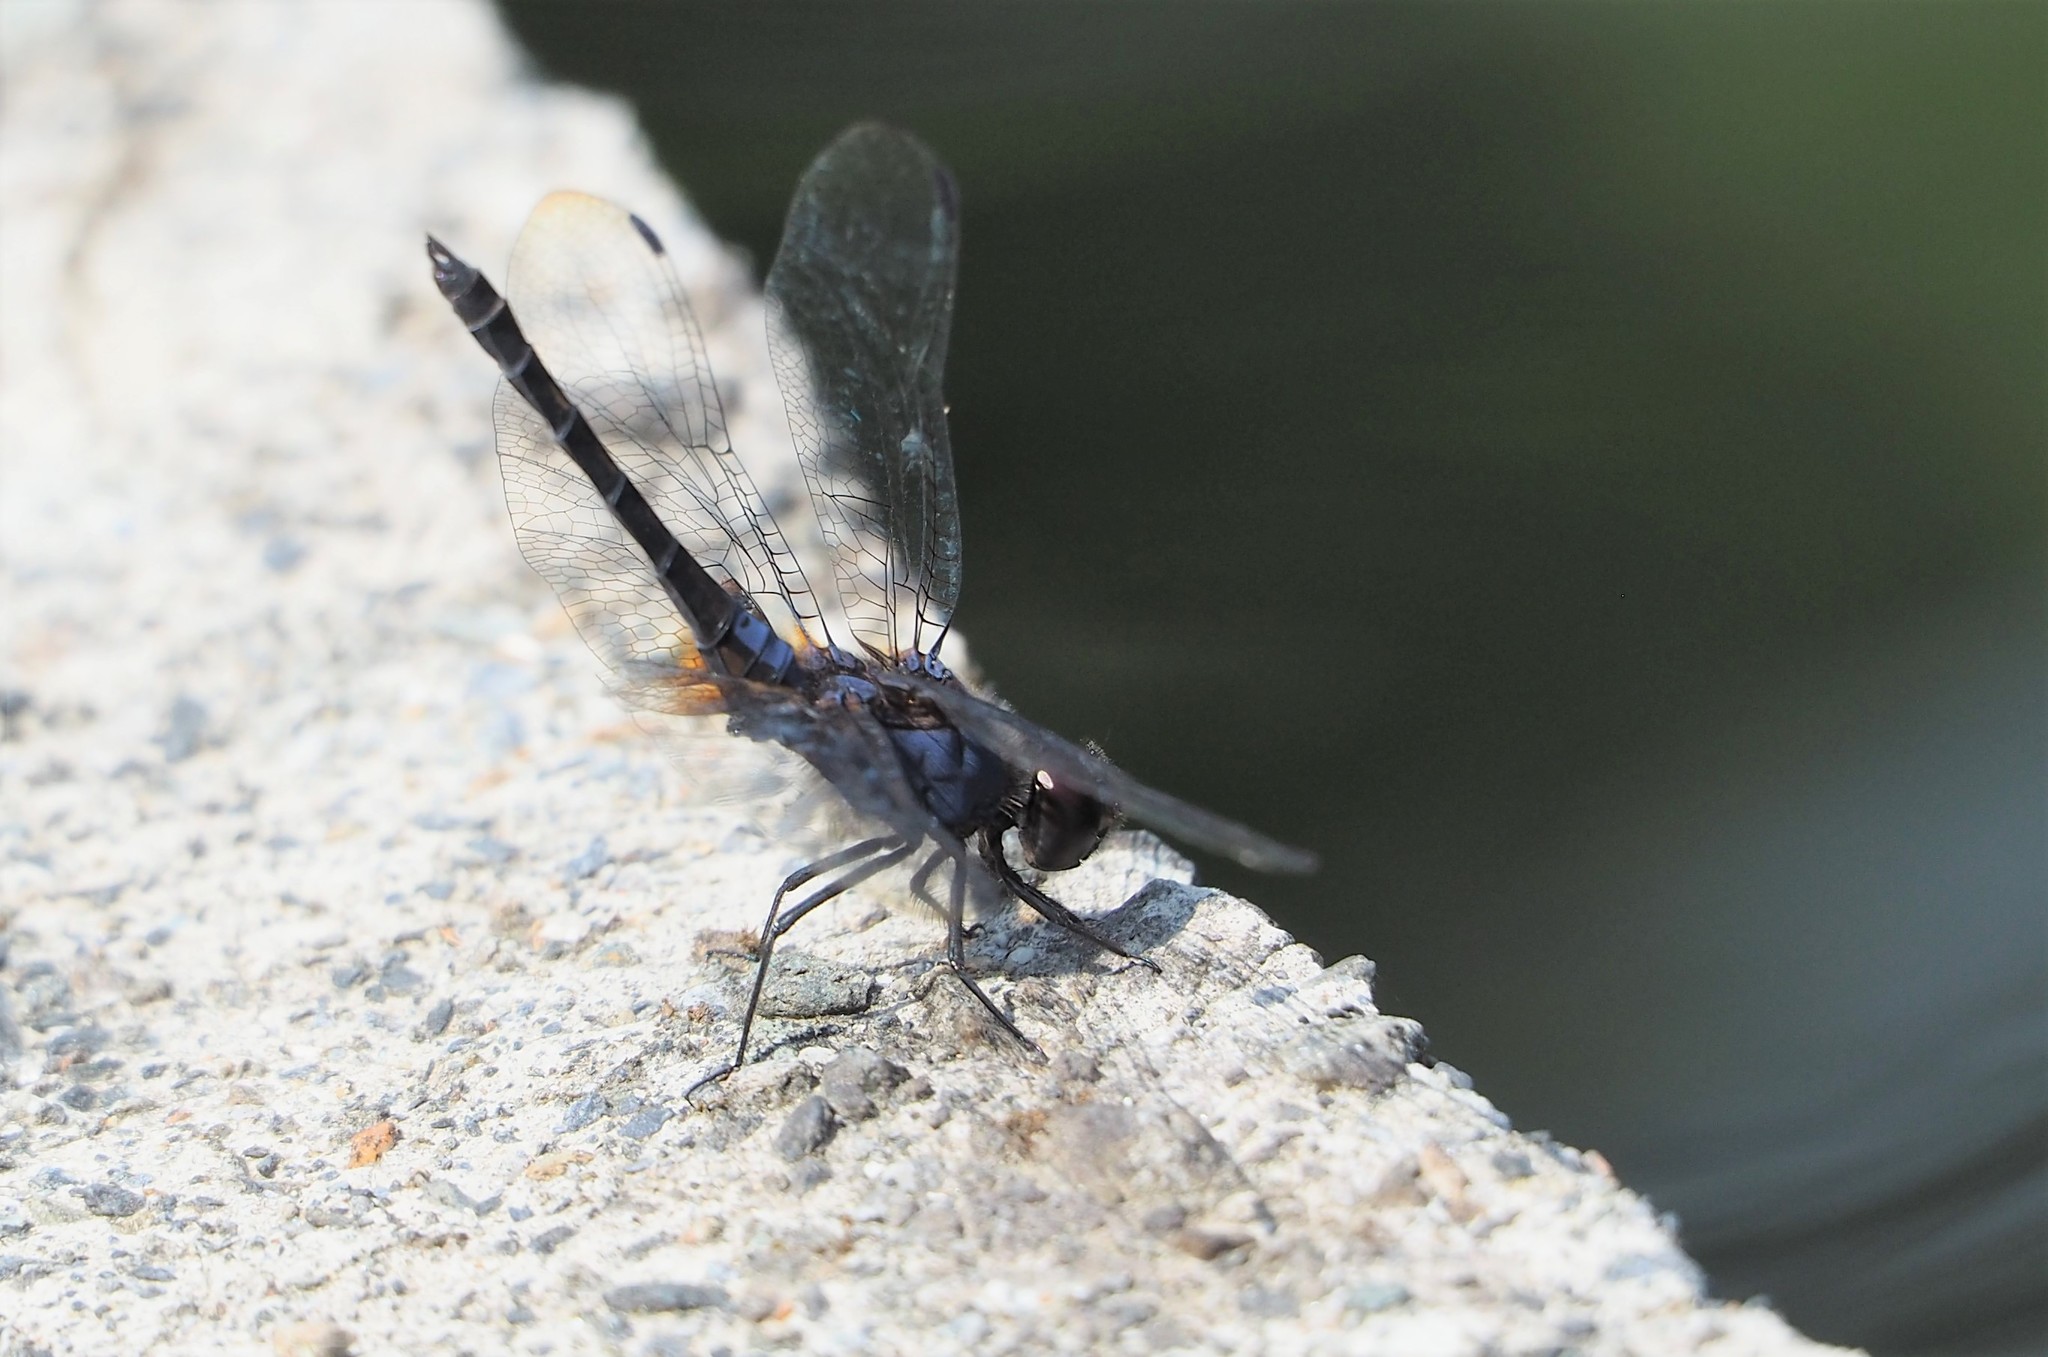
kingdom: Animalia
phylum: Arthropoda
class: Insecta
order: Odonata
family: Libellulidae
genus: Trithemis
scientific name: Trithemis festiva
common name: Indigo dropwing
